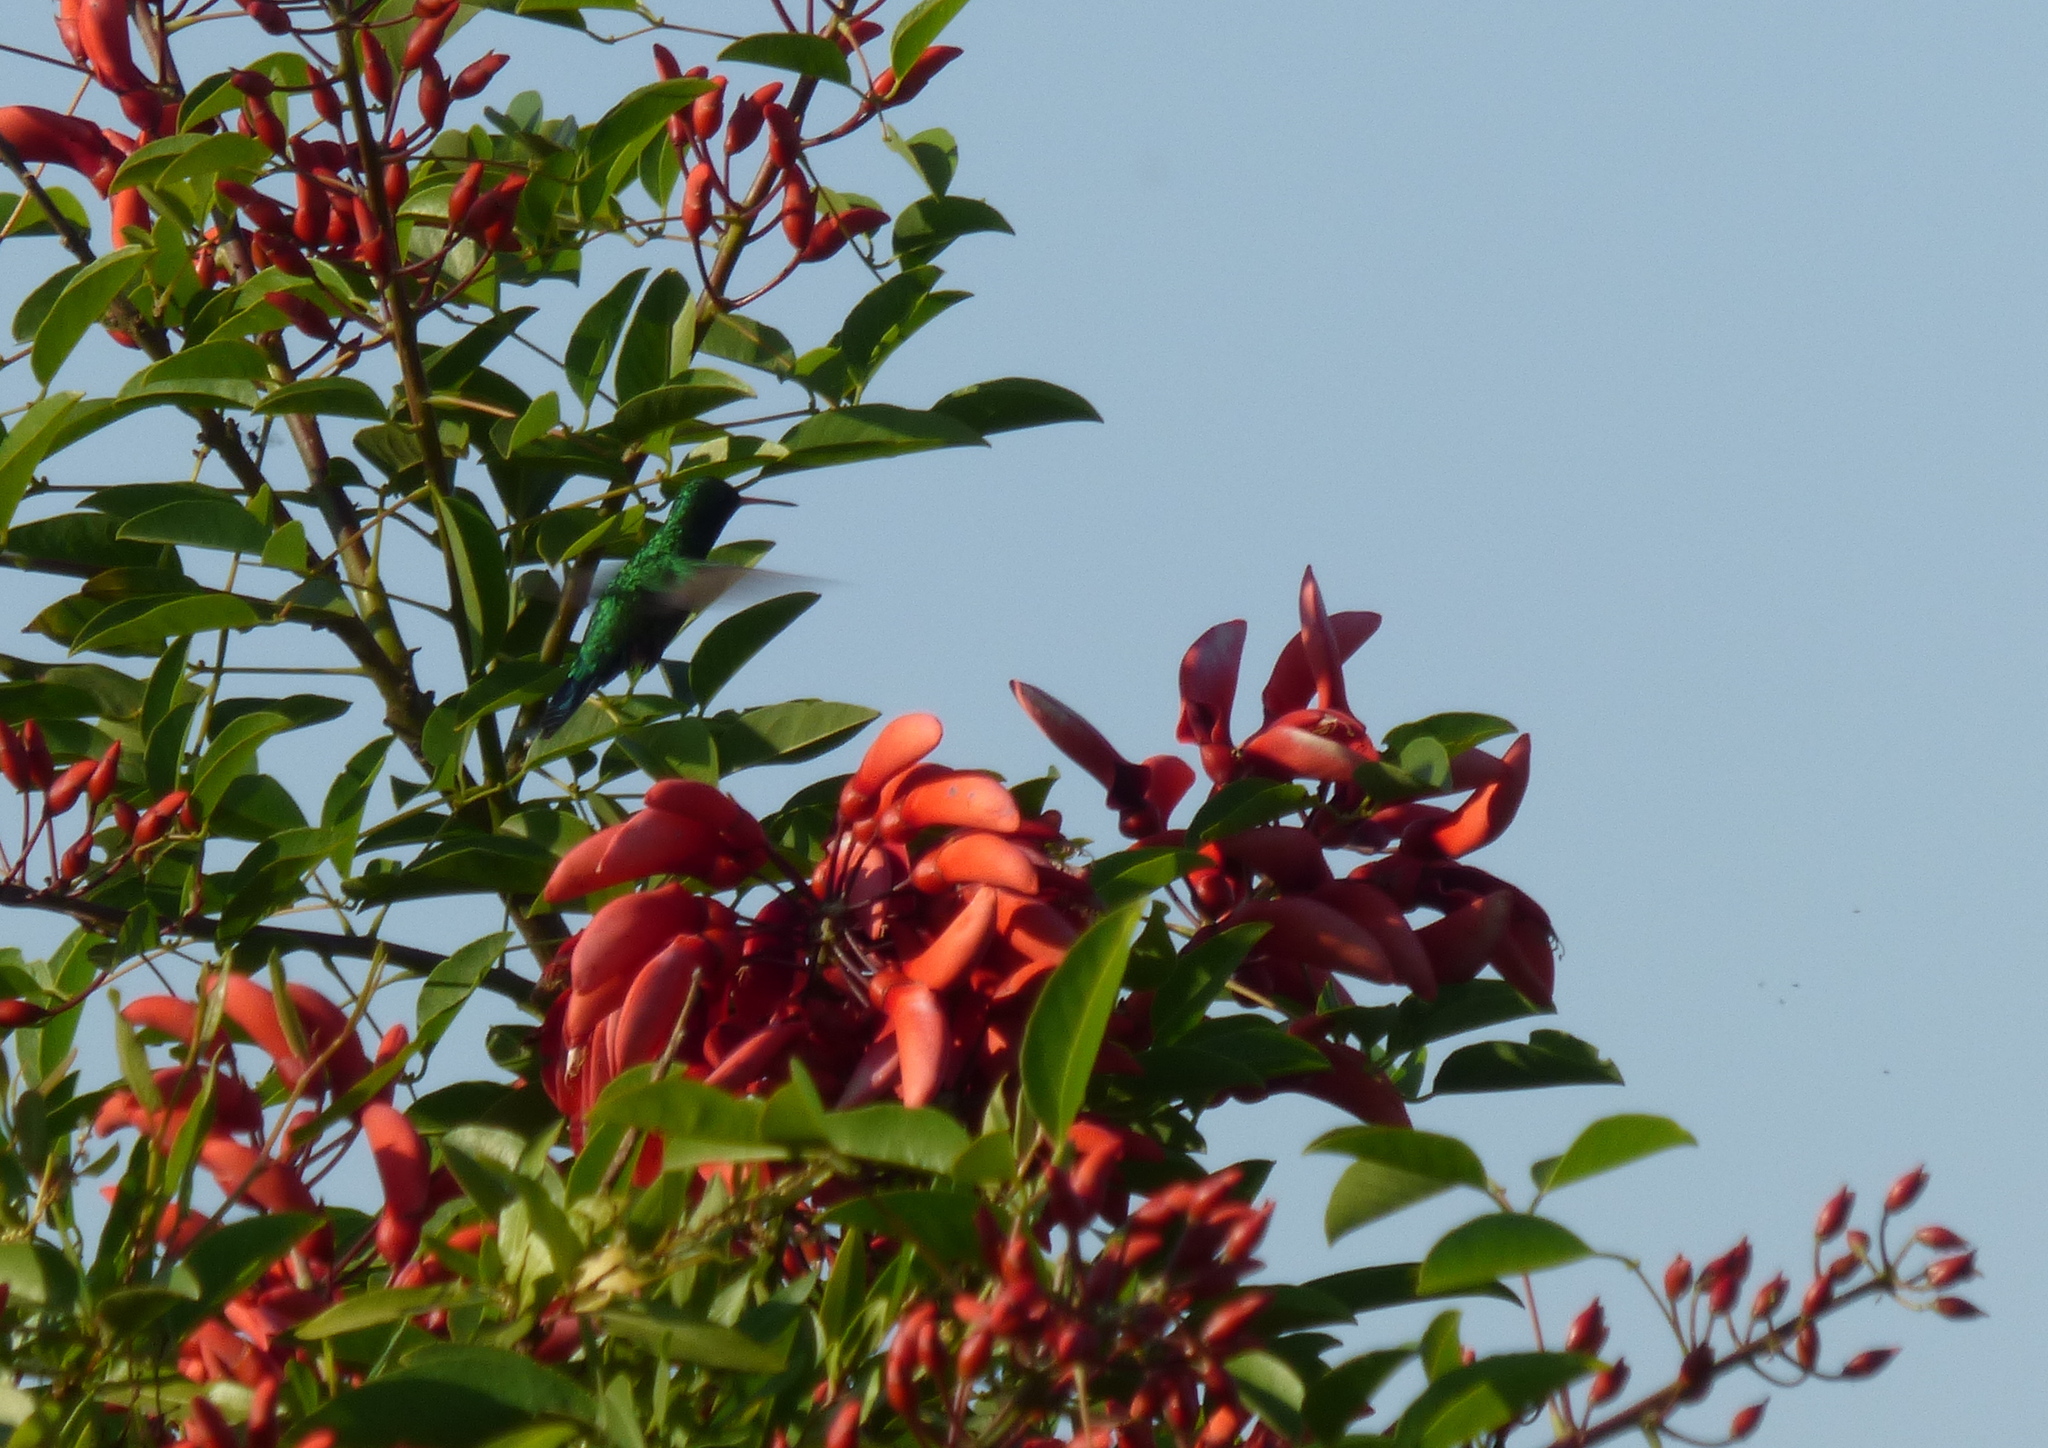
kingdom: Animalia
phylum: Chordata
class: Aves
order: Apodiformes
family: Trochilidae
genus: Chlorostilbon
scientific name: Chlorostilbon lucidus
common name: Glittering-bellied emerald
